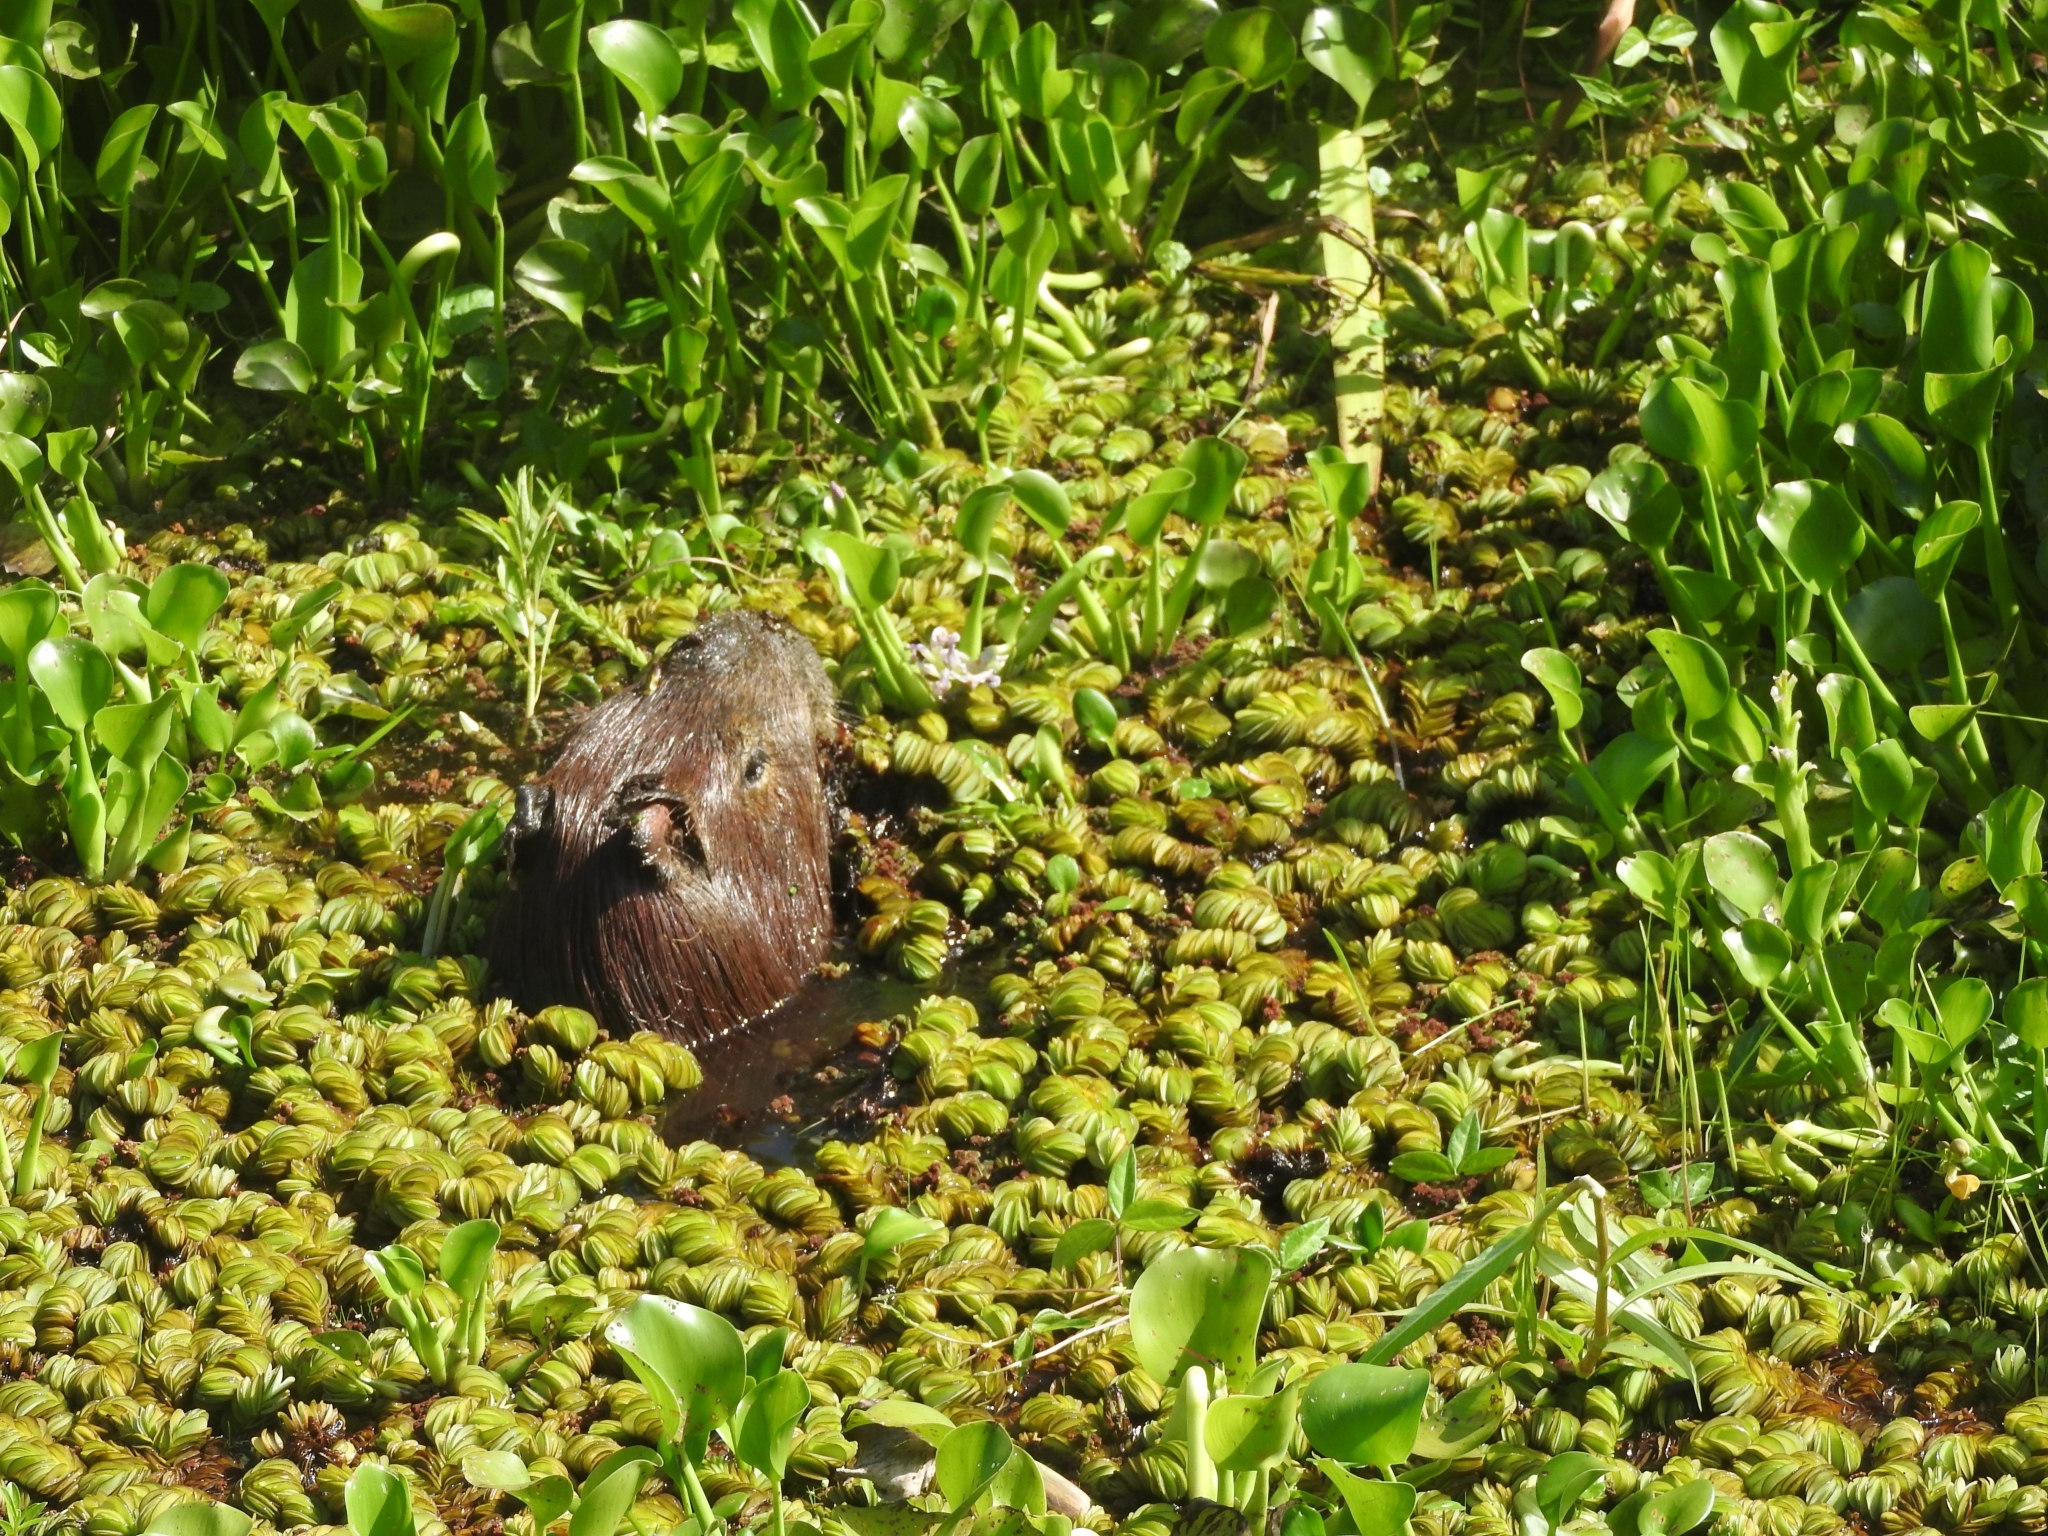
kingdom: Animalia
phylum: Chordata
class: Mammalia
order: Rodentia
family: Caviidae
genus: Hydrochoerus
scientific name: Hydrochoerus hydrochaeris
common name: Capybara
